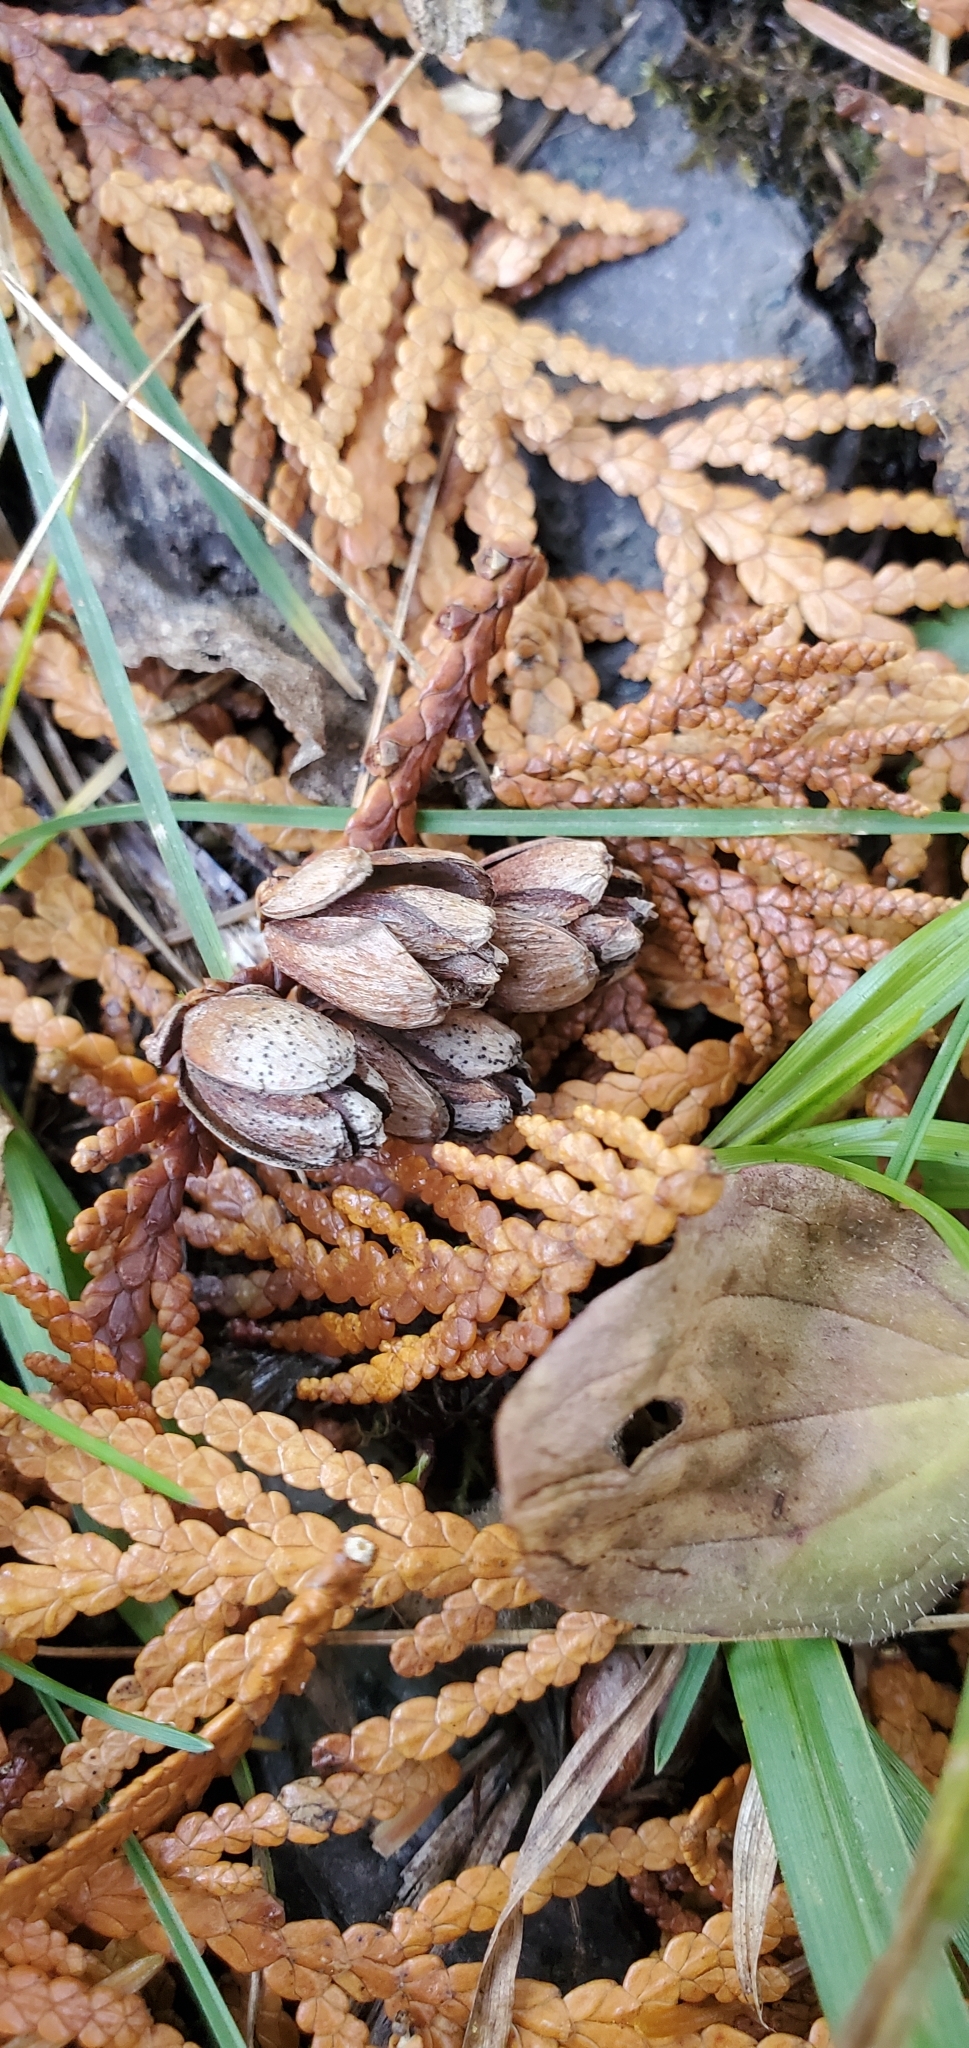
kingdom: Plantae
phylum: Tracheophyta
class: Pinopsida
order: Pinales
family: Cupressaceae
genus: Thuja
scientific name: Thuja occidentalis
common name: Northern white-cedar
